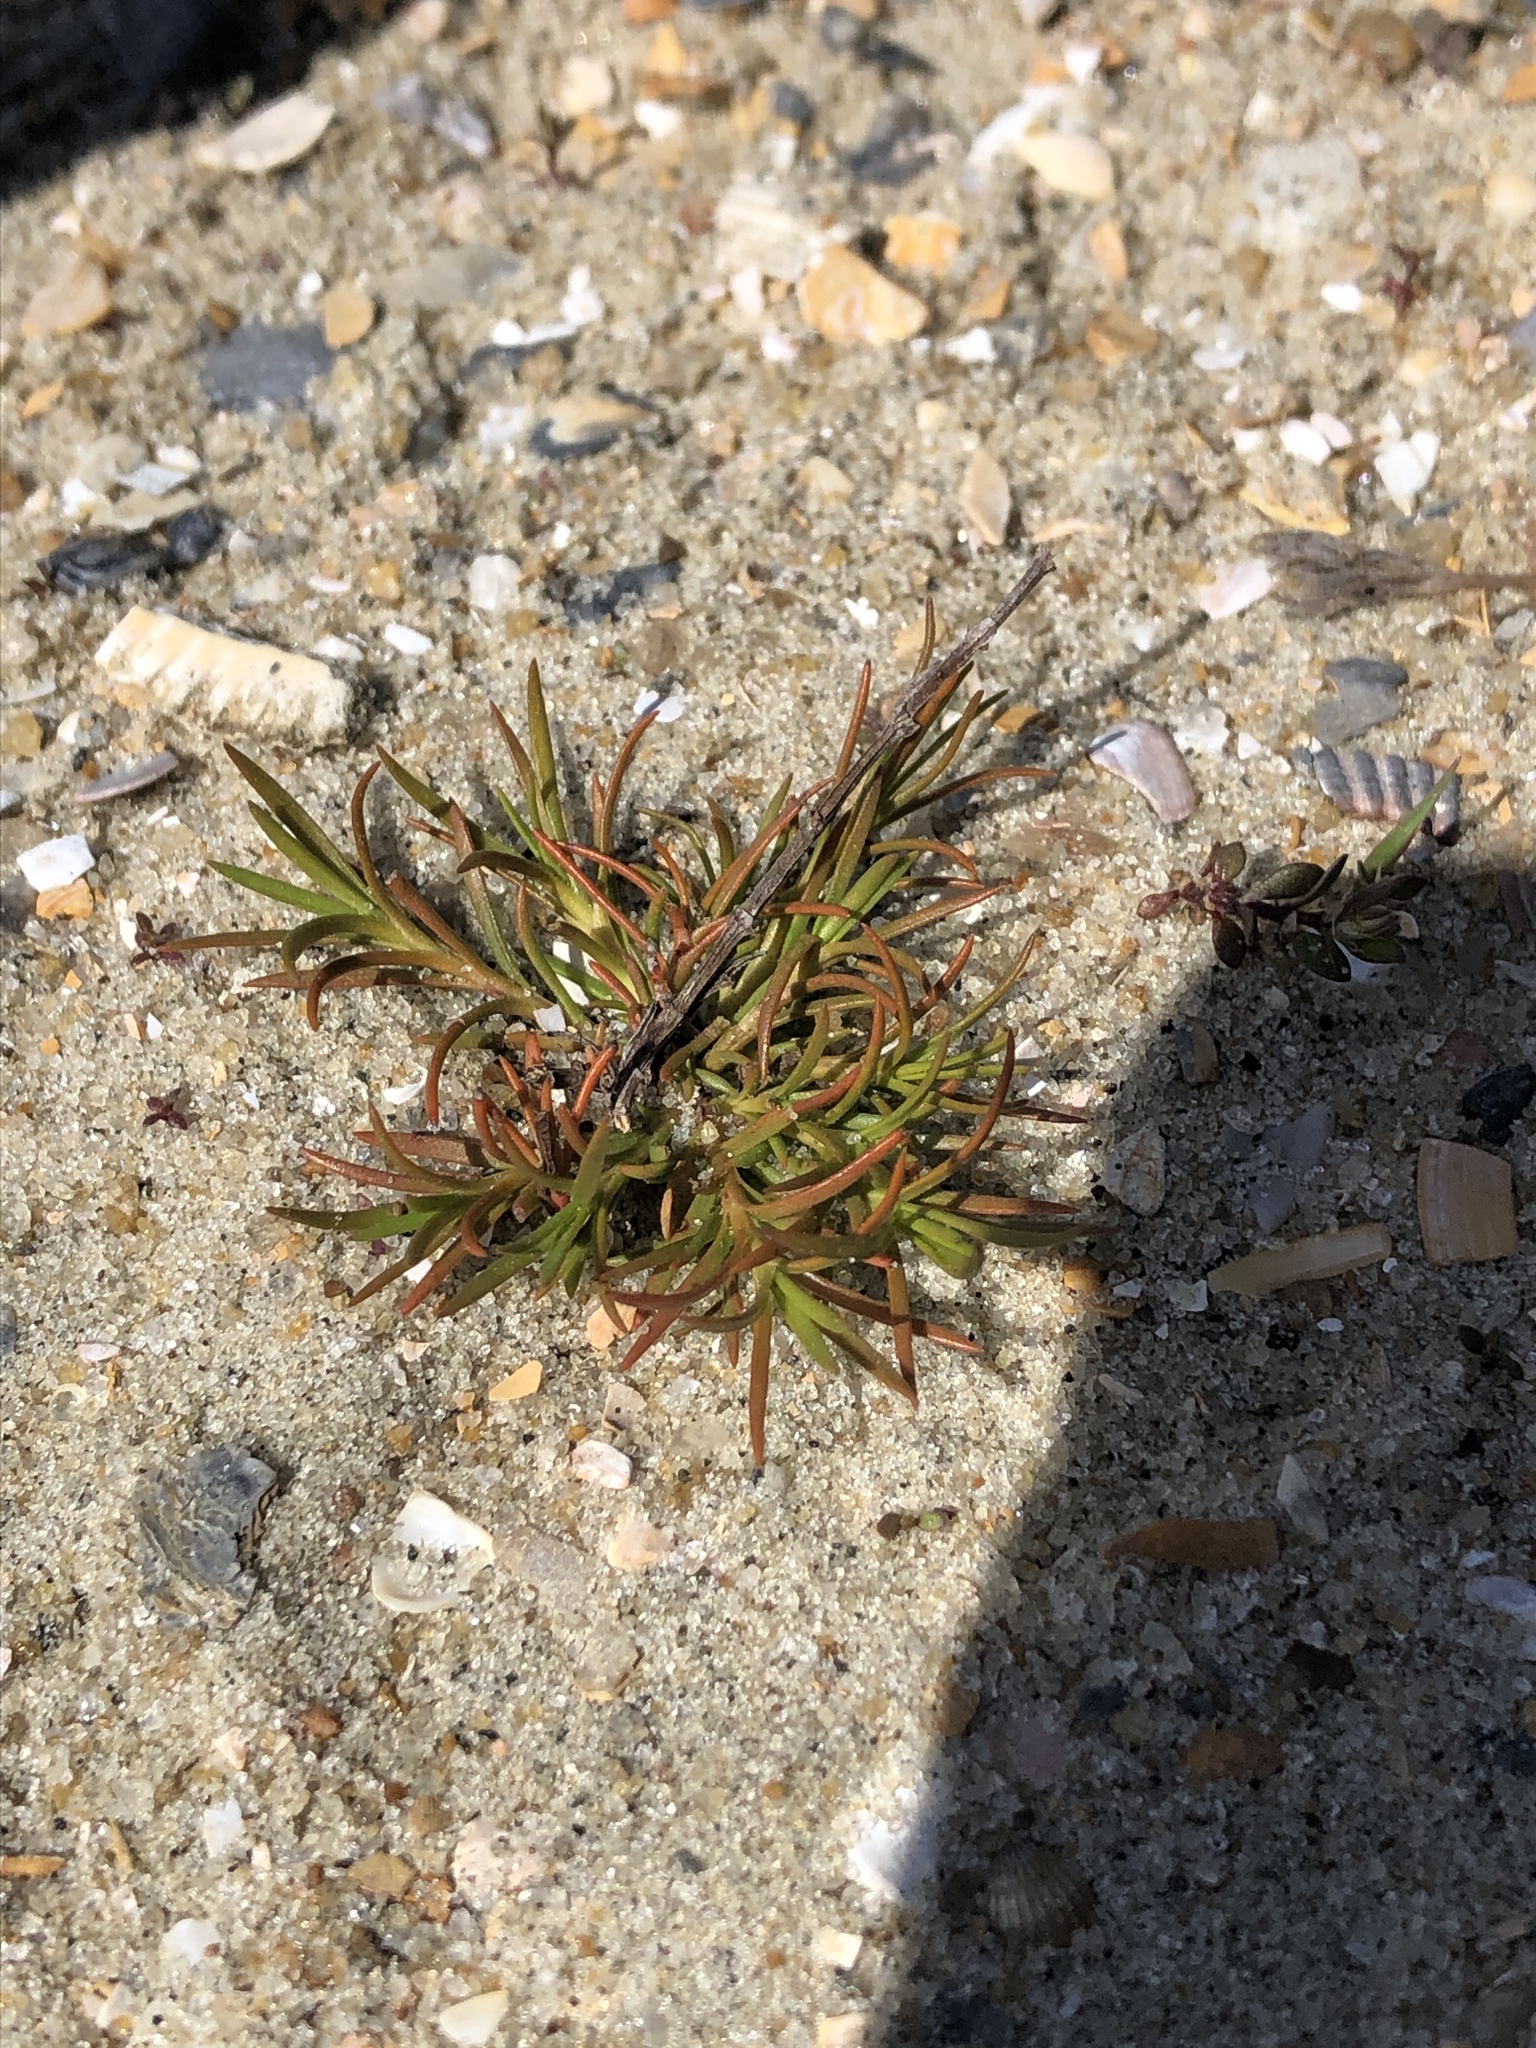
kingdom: Plantae
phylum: Tracheophyta
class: Magnoliopsida
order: Lamiales
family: Tetrachondraceae
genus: Polypremum
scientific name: Polypremum procumbens
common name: Juniper-leaf
